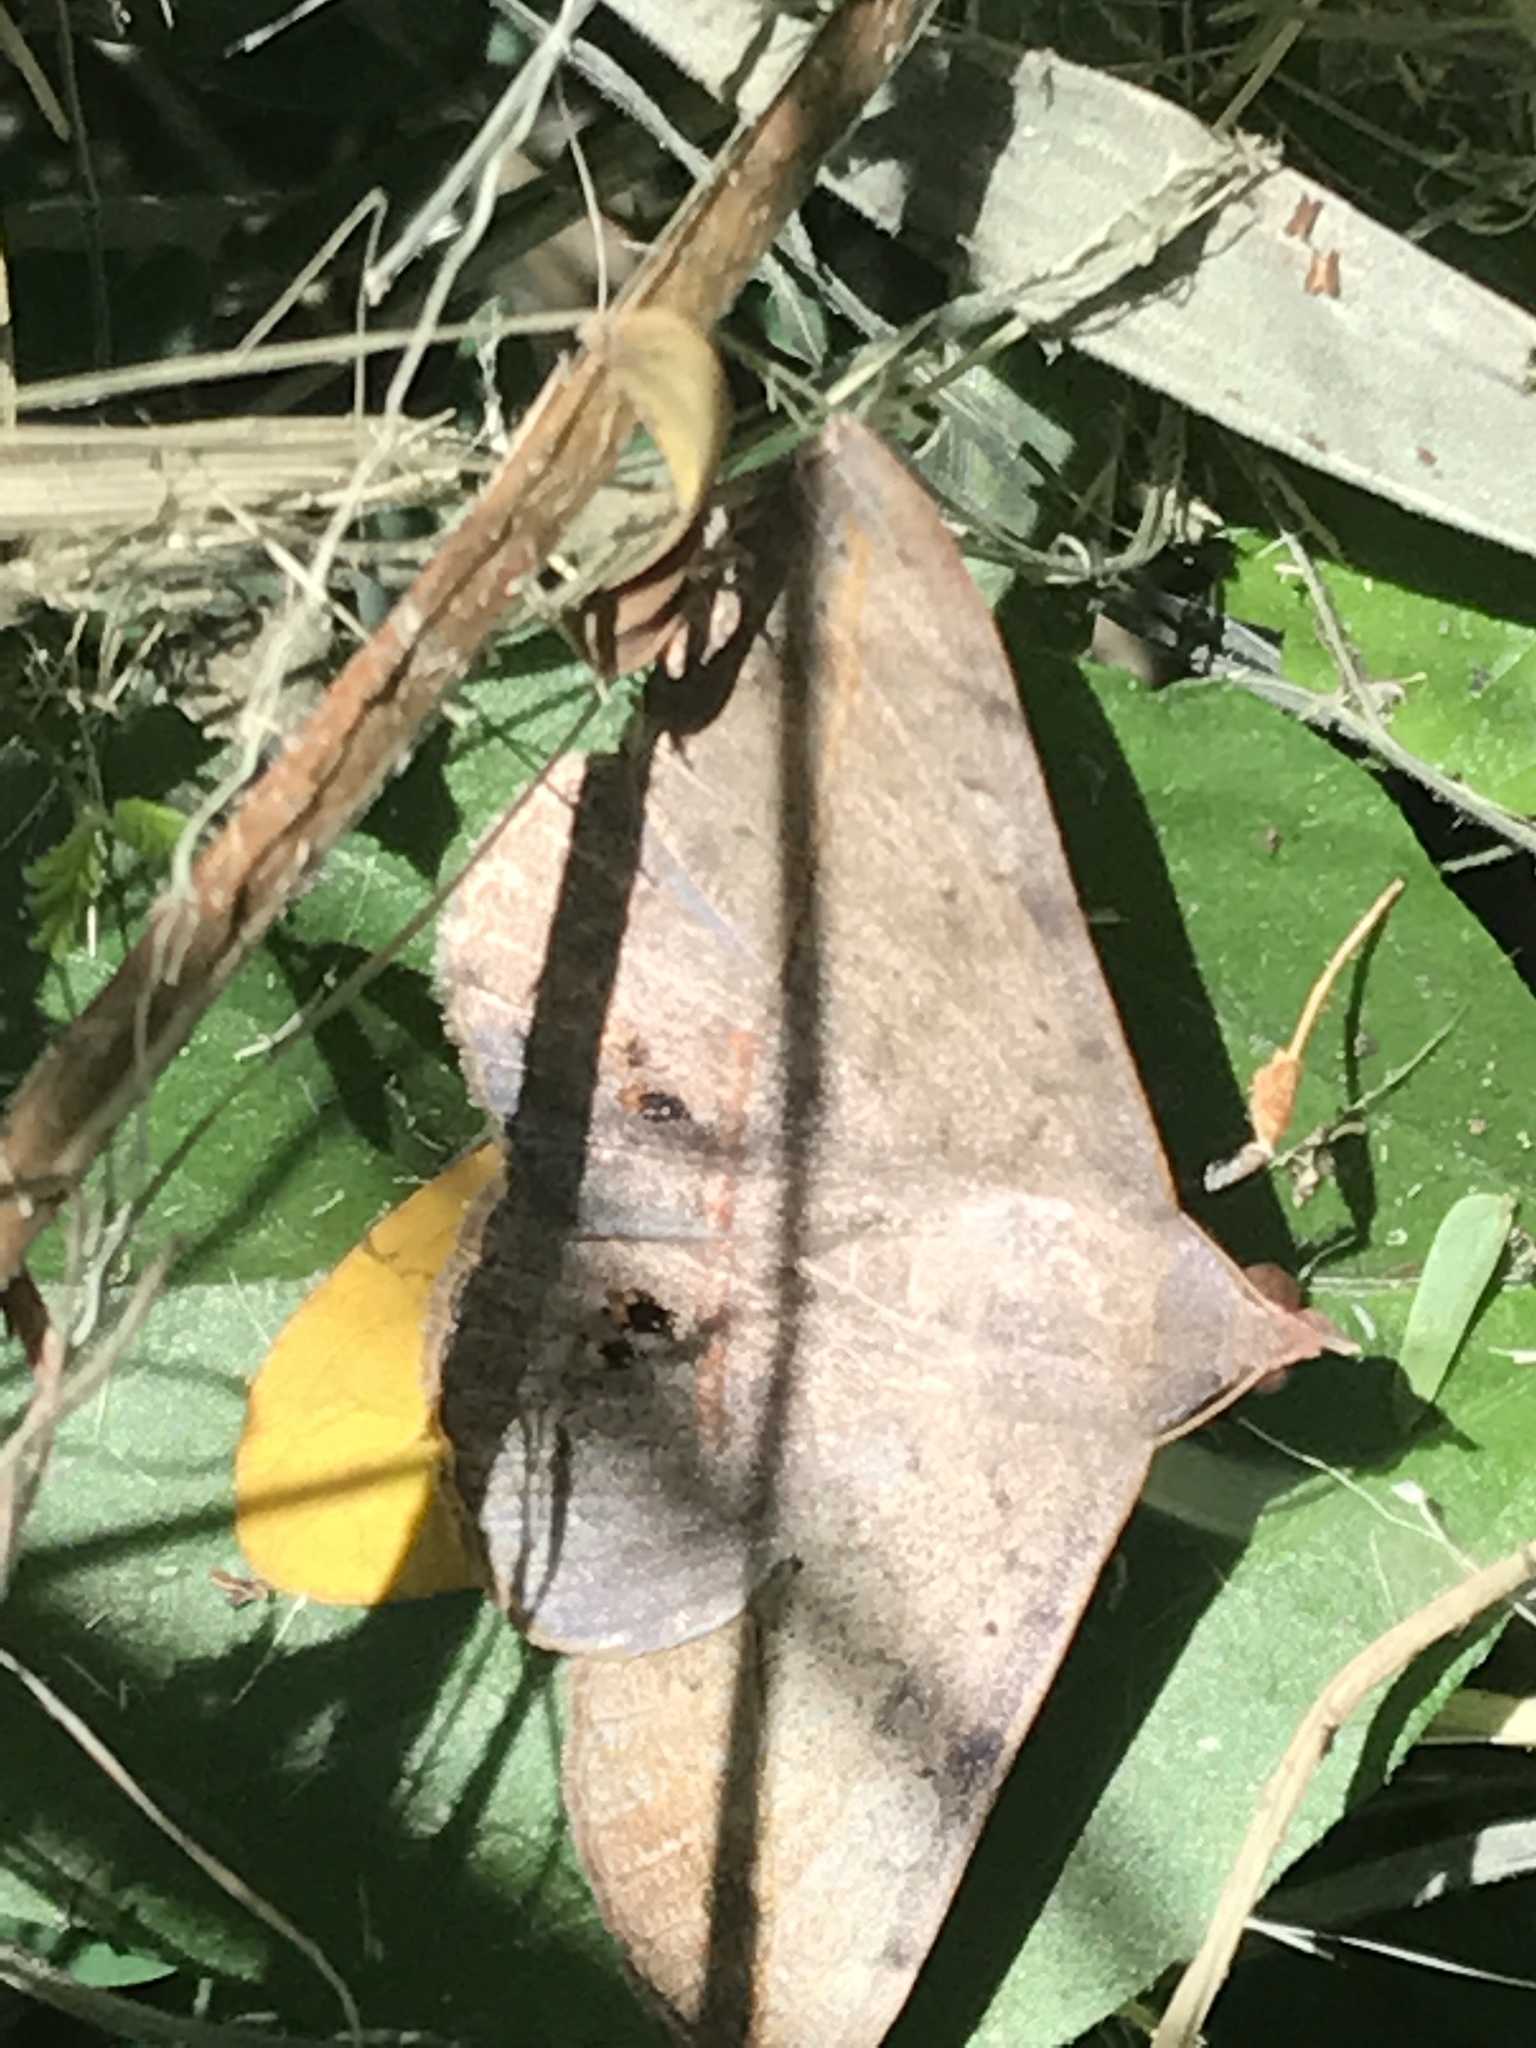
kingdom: Animalia
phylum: Arthropoda
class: Insecta
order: Lepidoptera
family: Erebidae
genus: Anticarsia
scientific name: Anticarsia gemmatalis
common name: Cutworm moth
